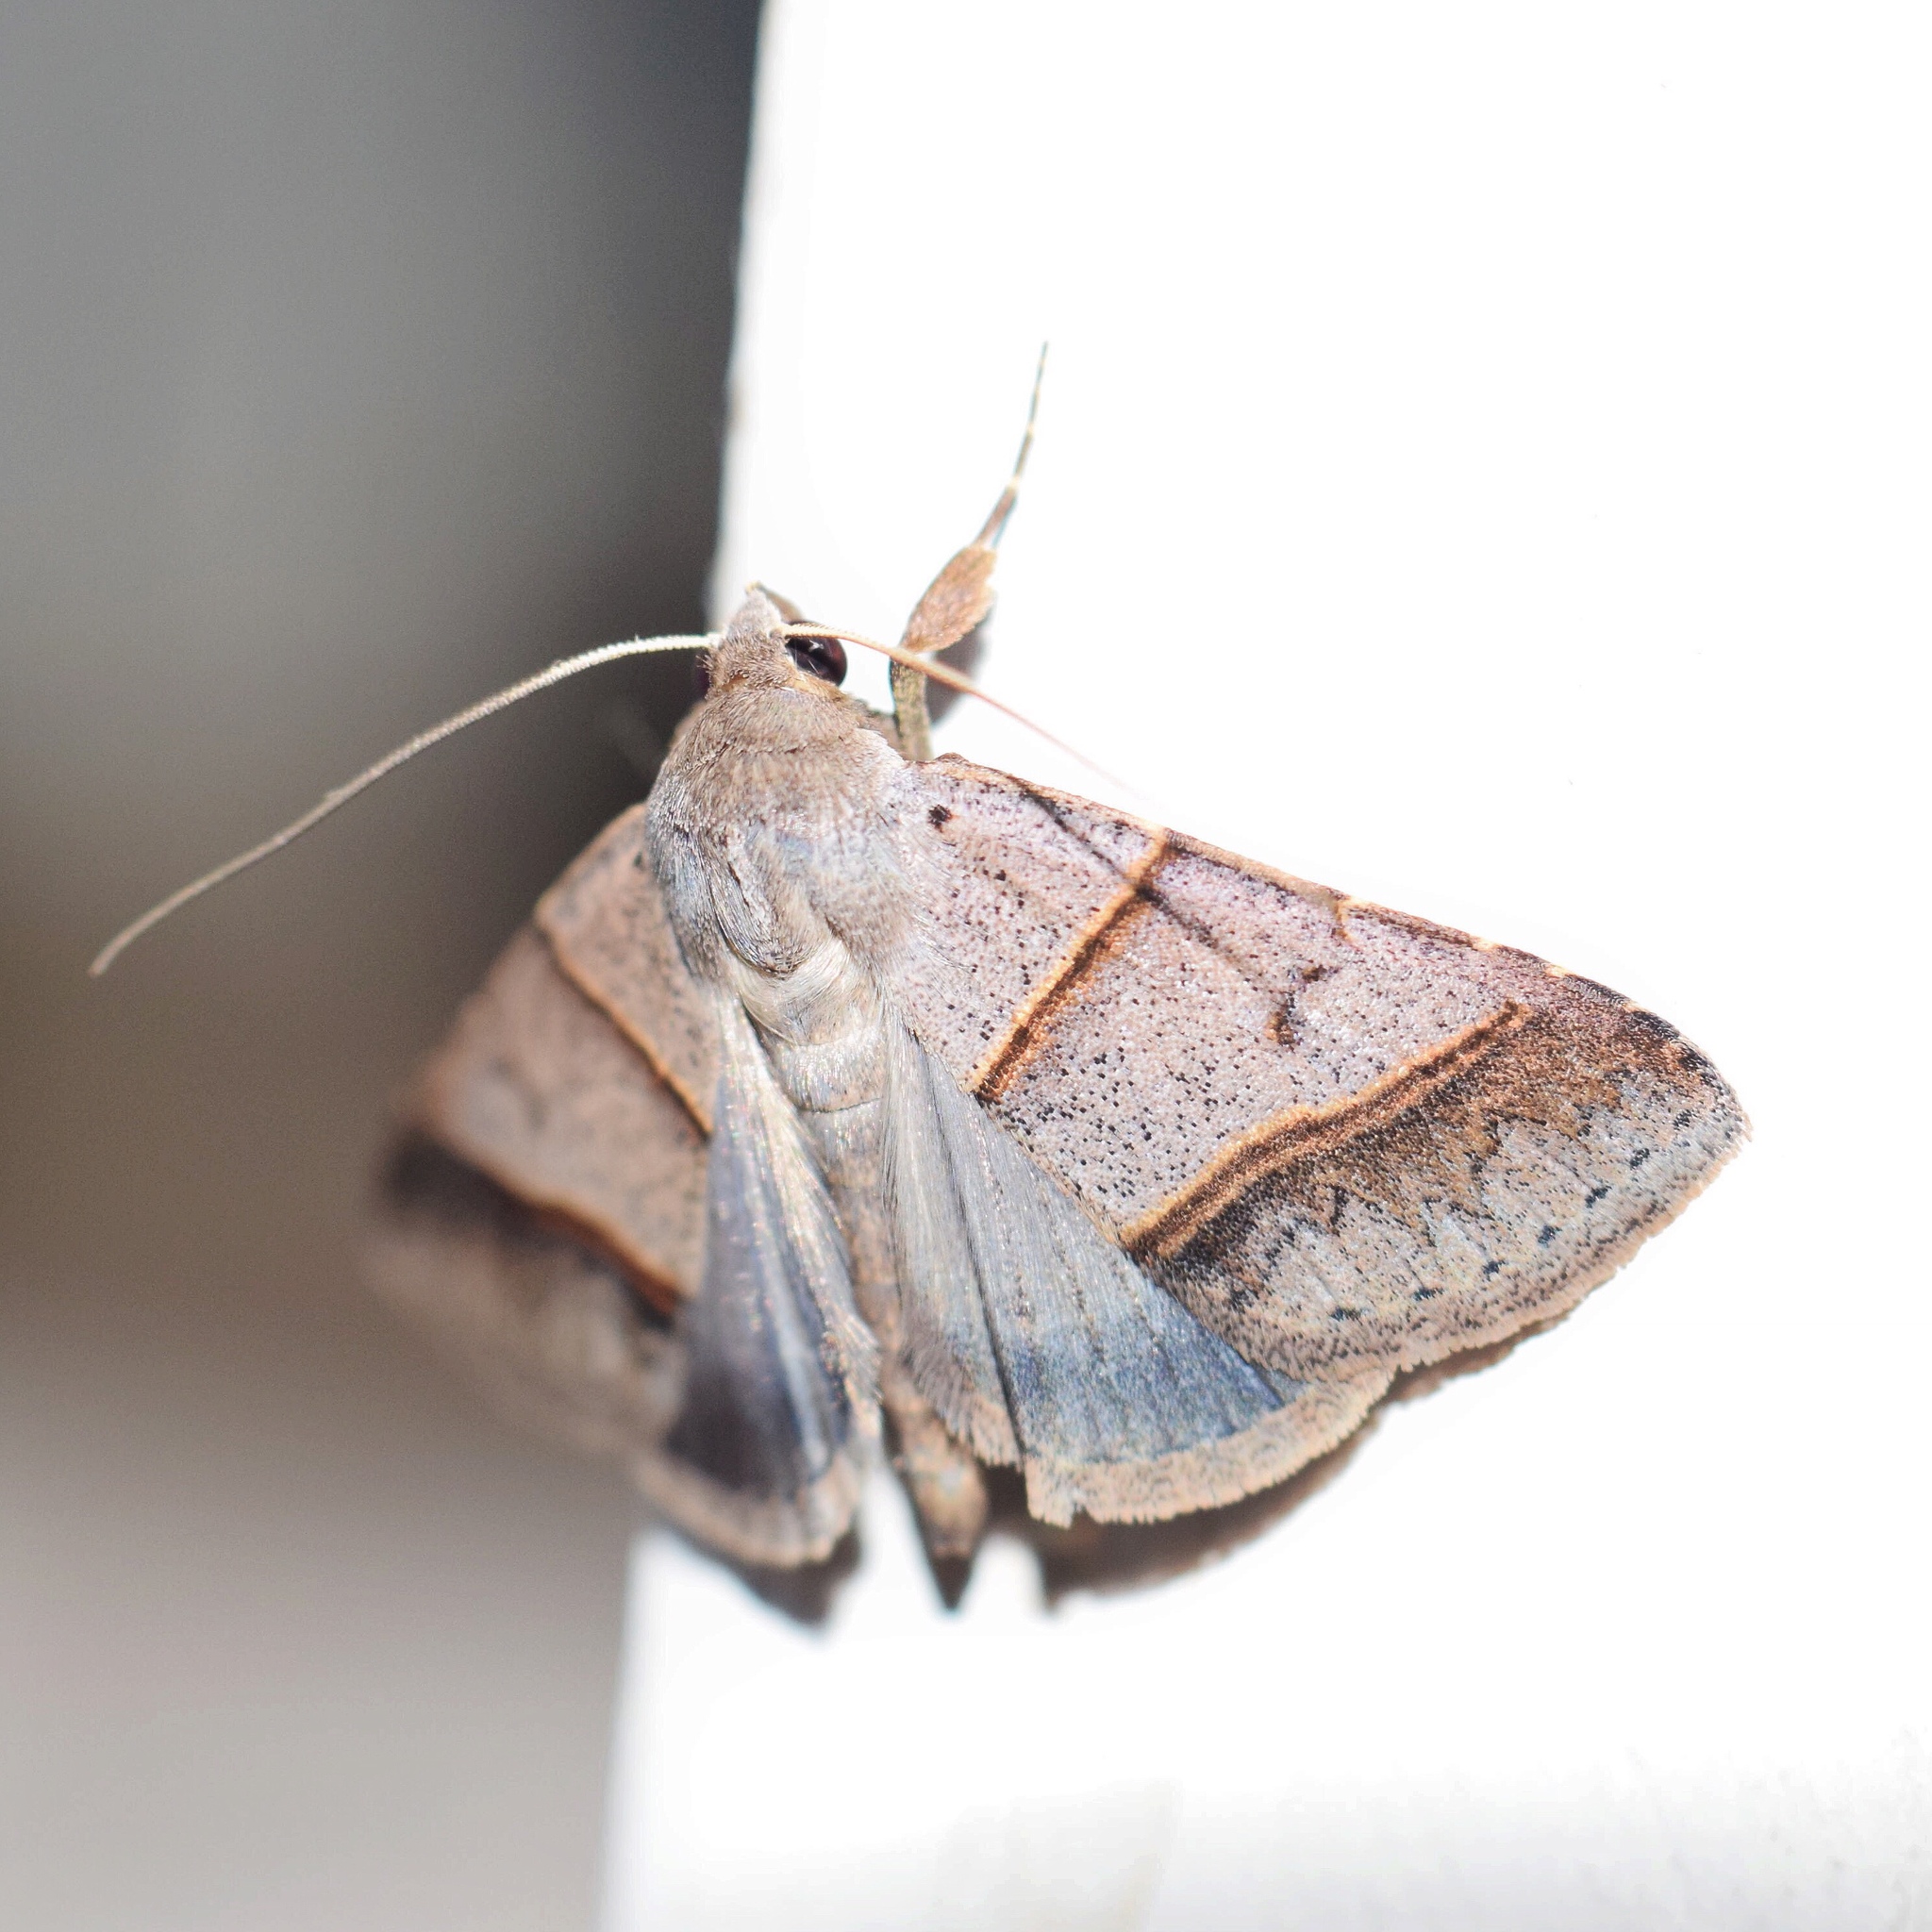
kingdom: Animalia
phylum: Arthropoda
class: Insecta
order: Lepidoptera
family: Erebidae
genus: Plecoptera
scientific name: Plecoptera laniata
